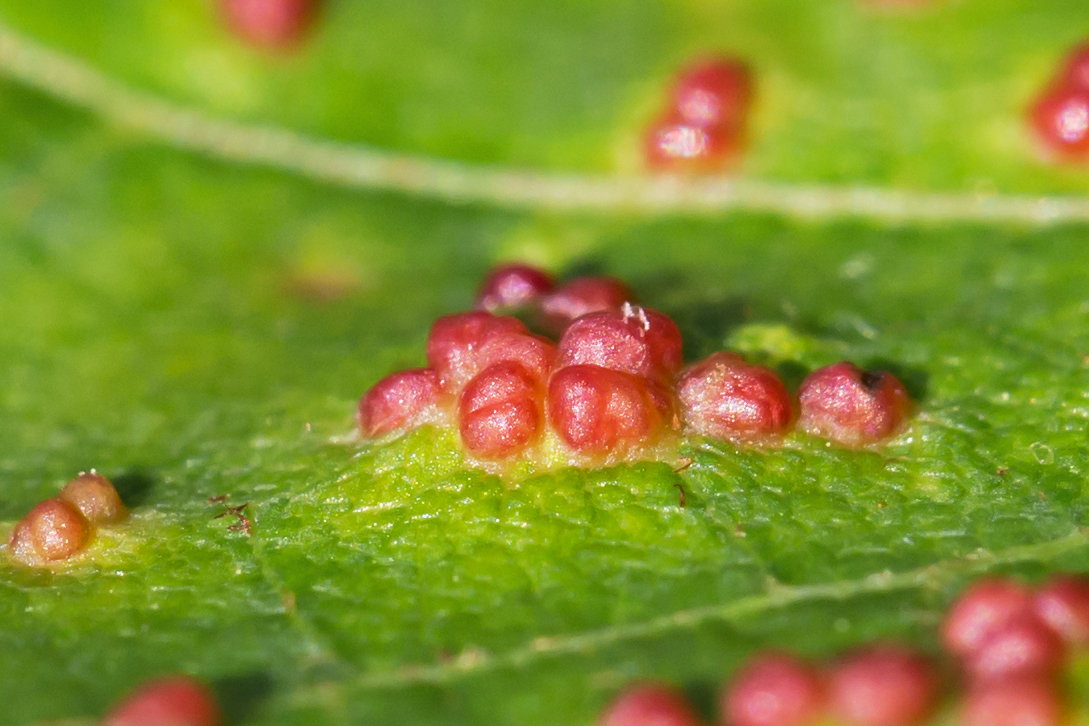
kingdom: Animalia
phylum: Arthropoda
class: Arachnida
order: Trombidiformes
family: Eriophyidae
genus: Vasates
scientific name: Vasates quadripedes
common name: Maple bladder gall mite
